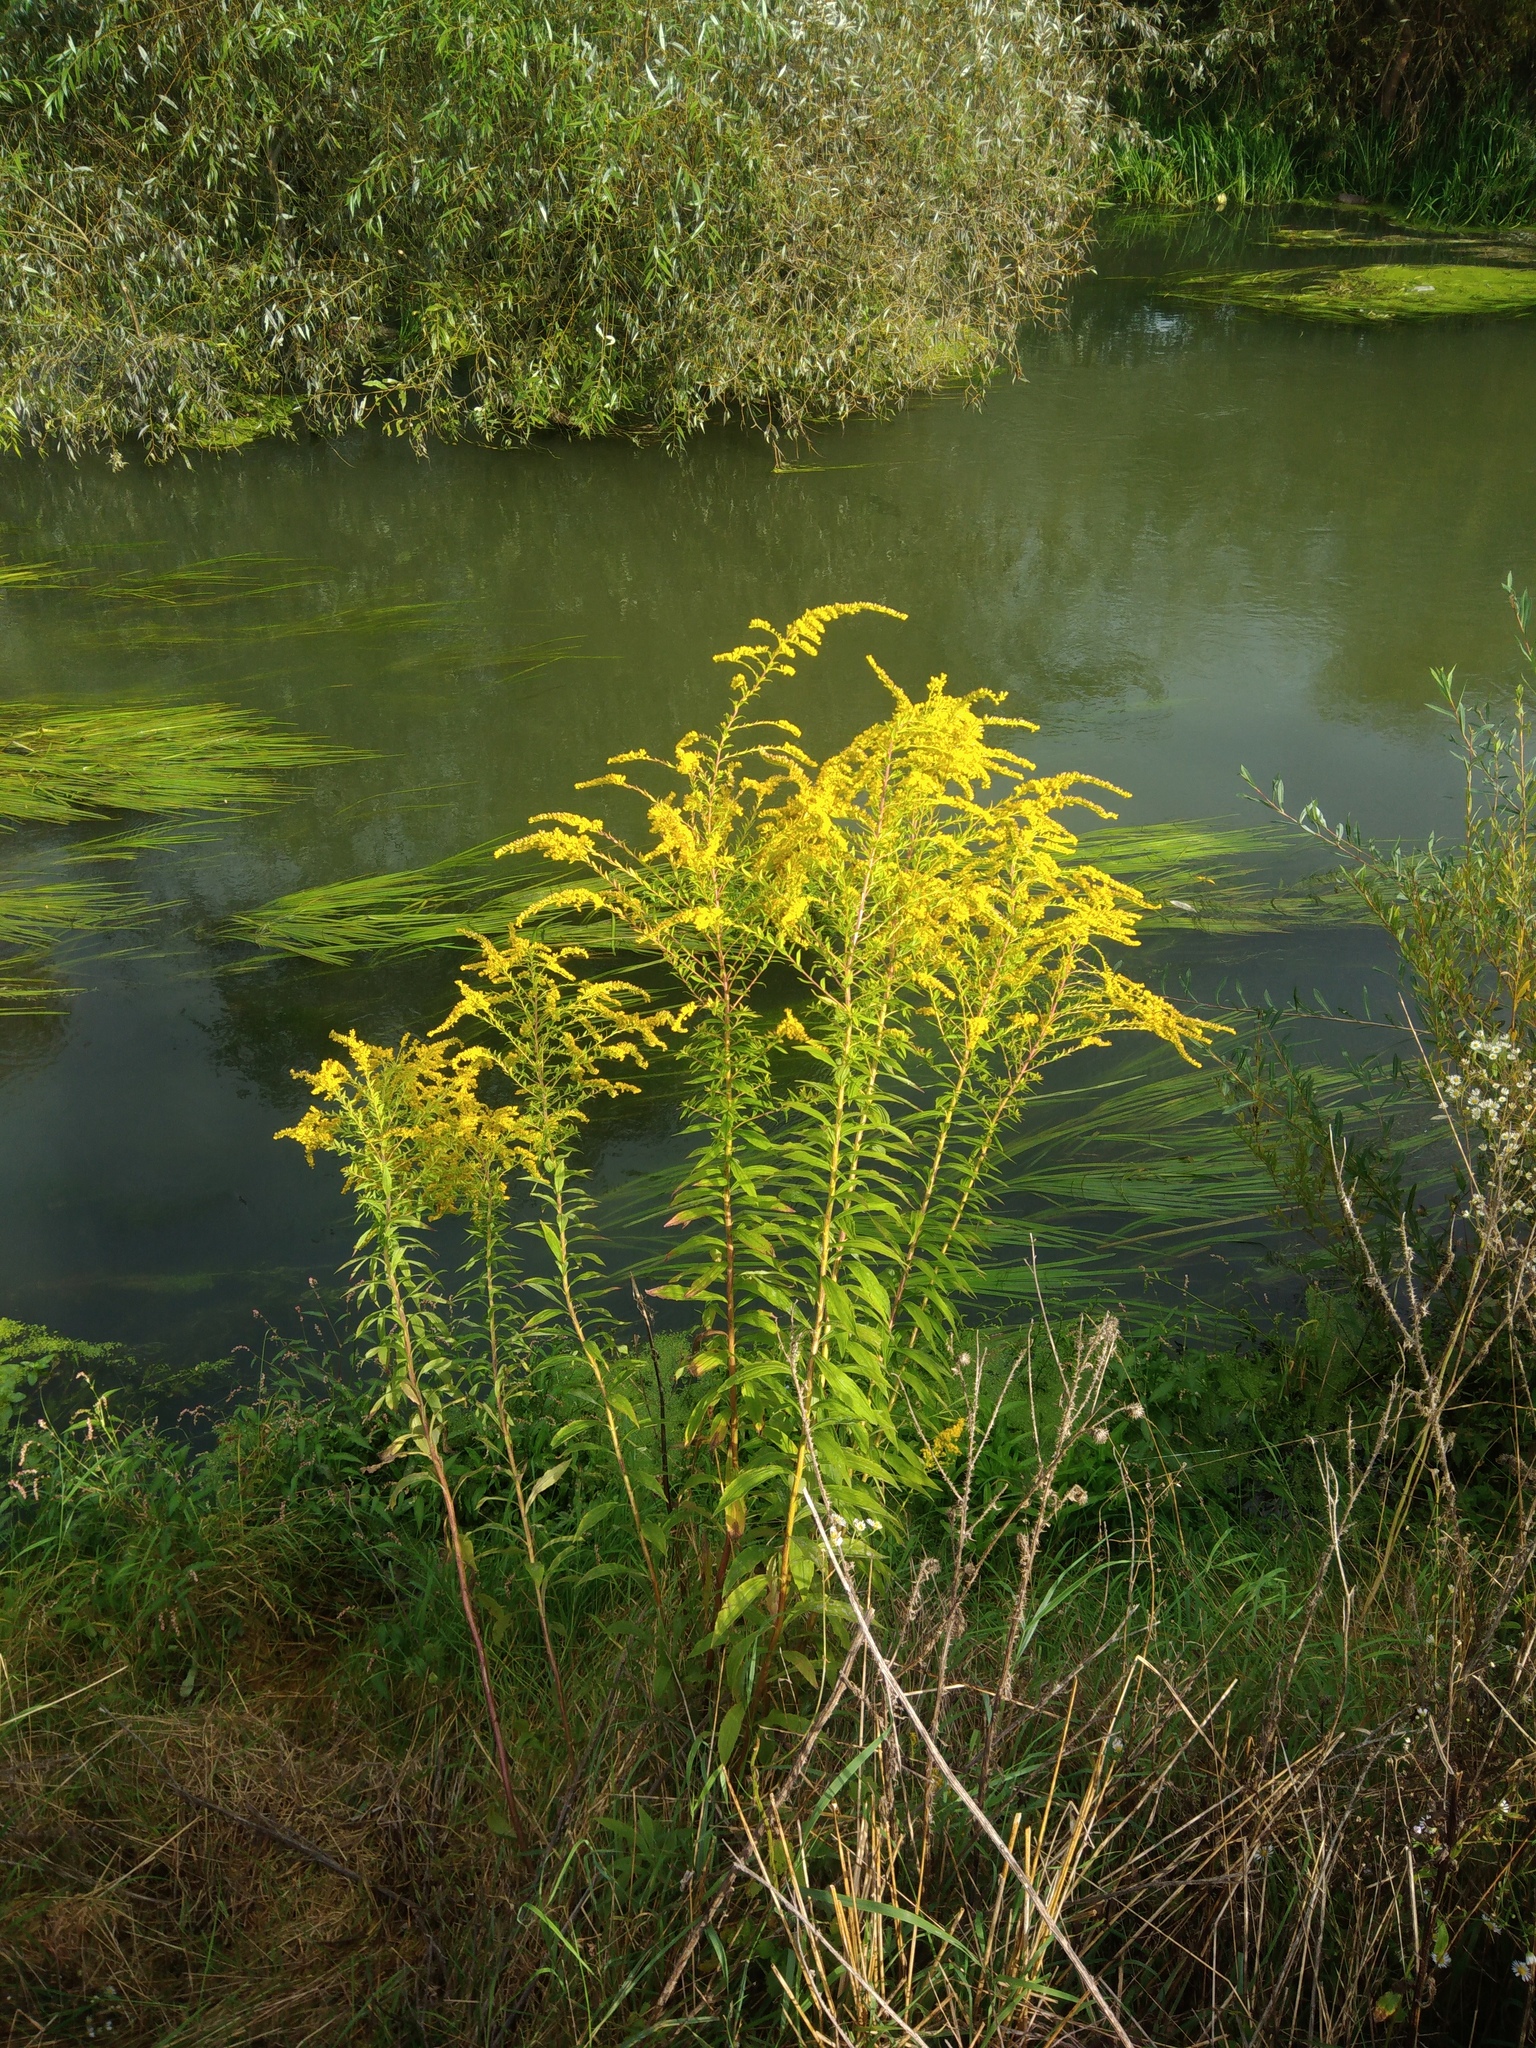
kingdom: Plantae
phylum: Tracheophyta
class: Magnoliopsida
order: Asterales
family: Asteraceae
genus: Solidago
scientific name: Solidago canadensis
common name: Canada goldenrod
